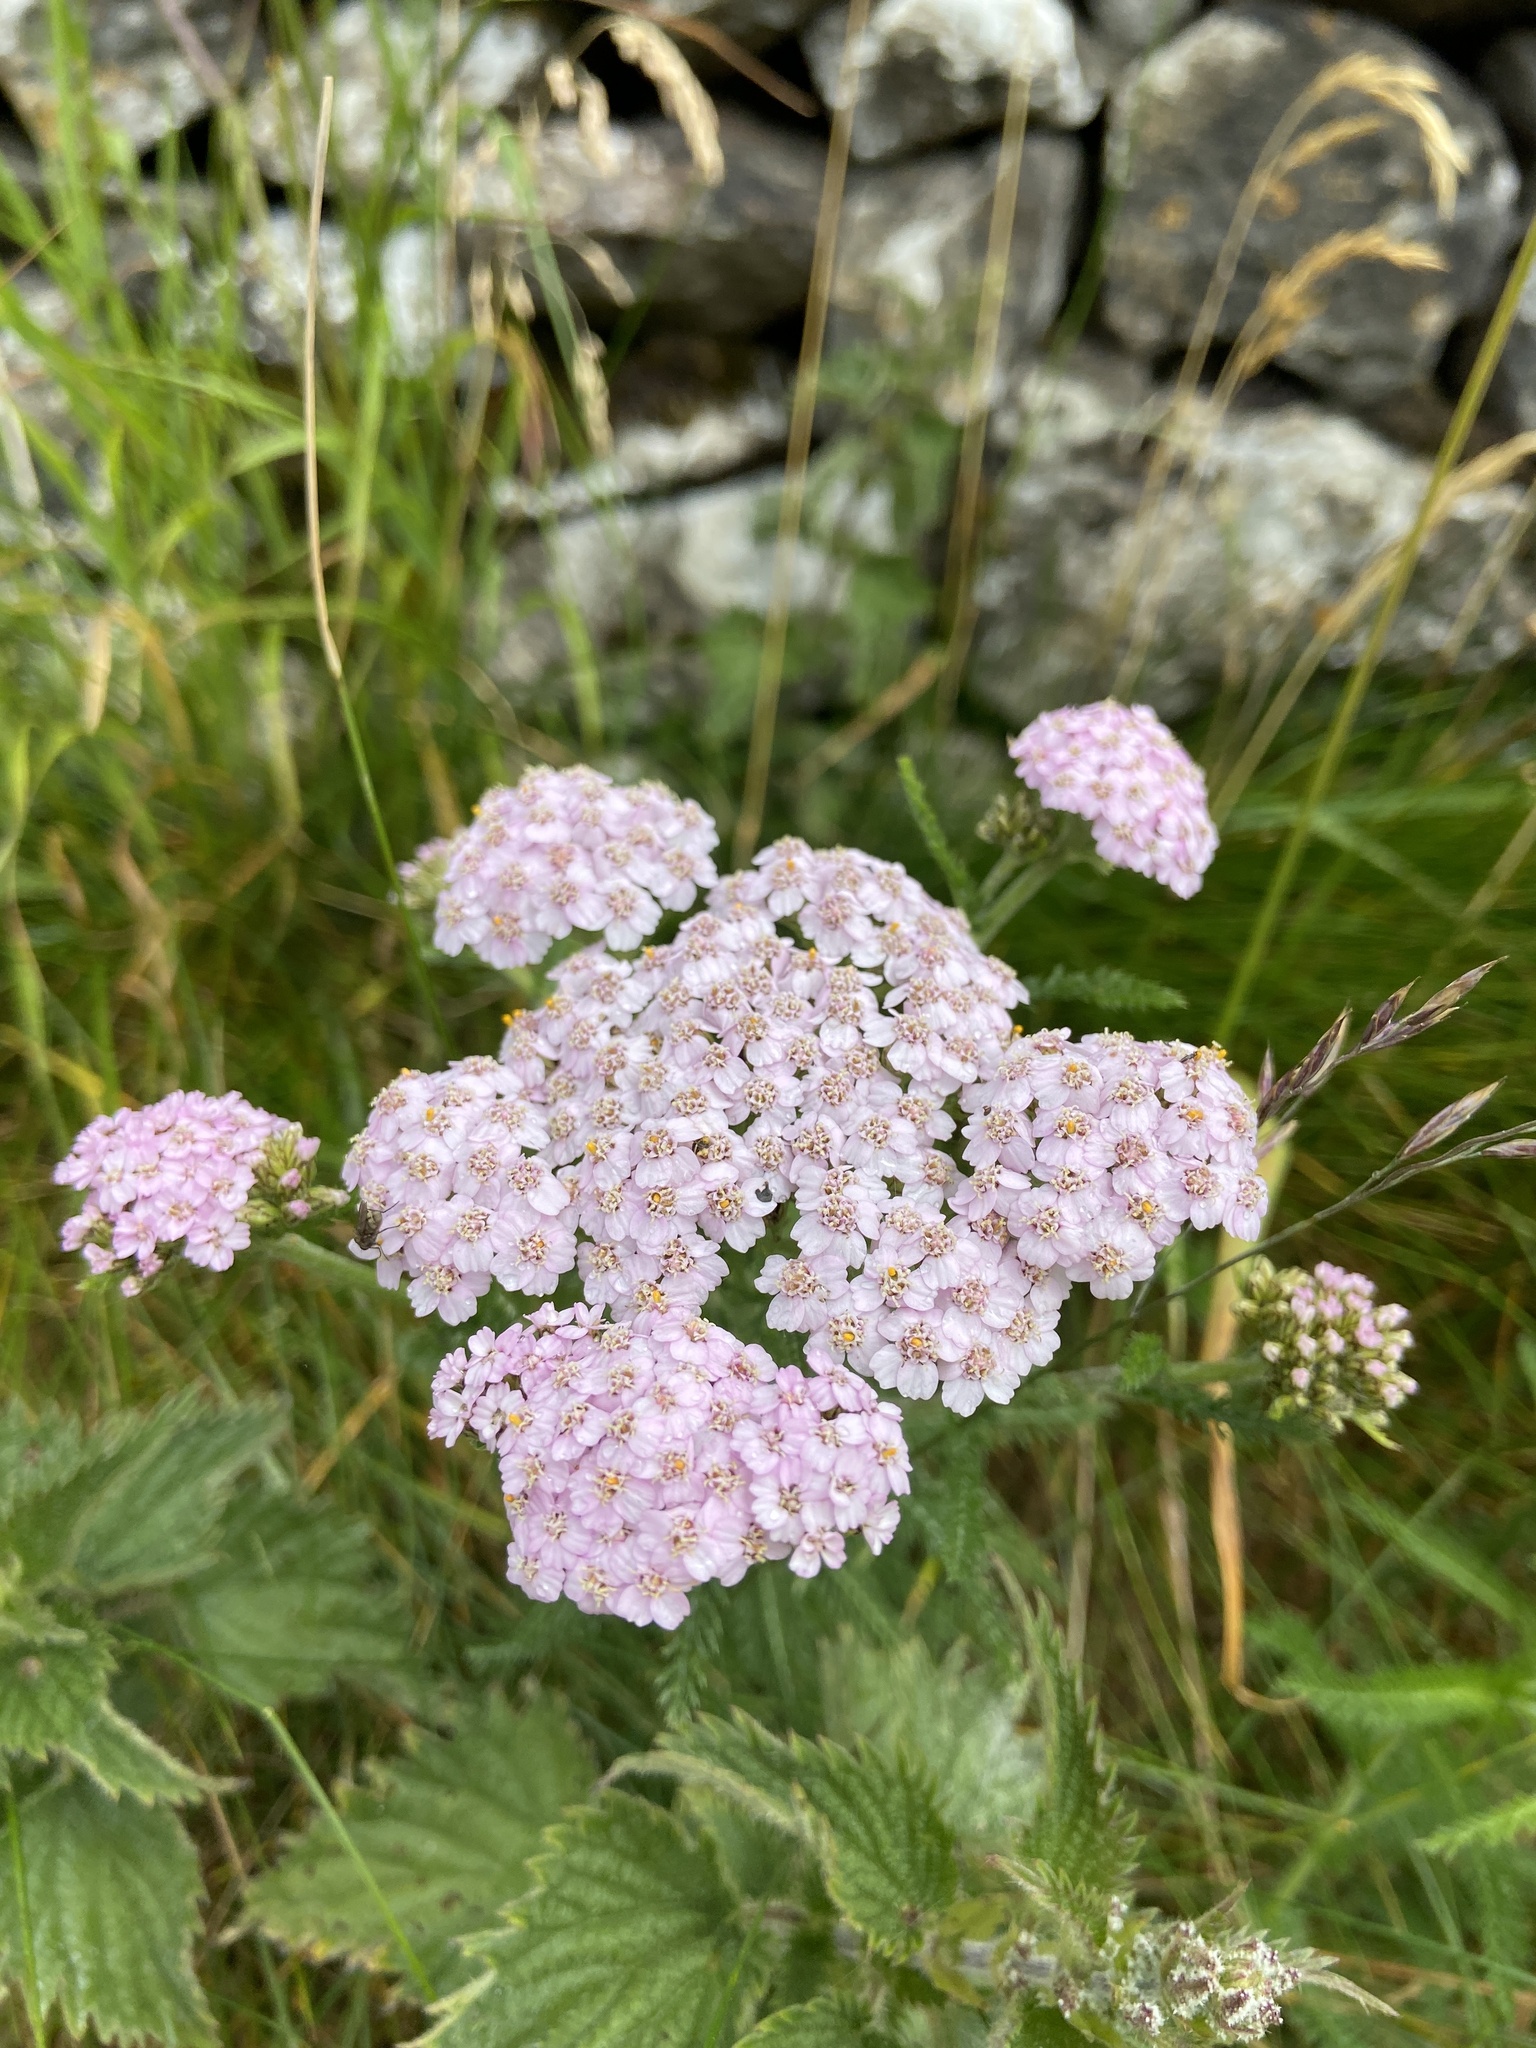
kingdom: Plantae
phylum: Tracheophyta
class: Magnoliopsida
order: Asterales
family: Asteraceae
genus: Achillea
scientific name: Achillea millefolium
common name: Yarrow
